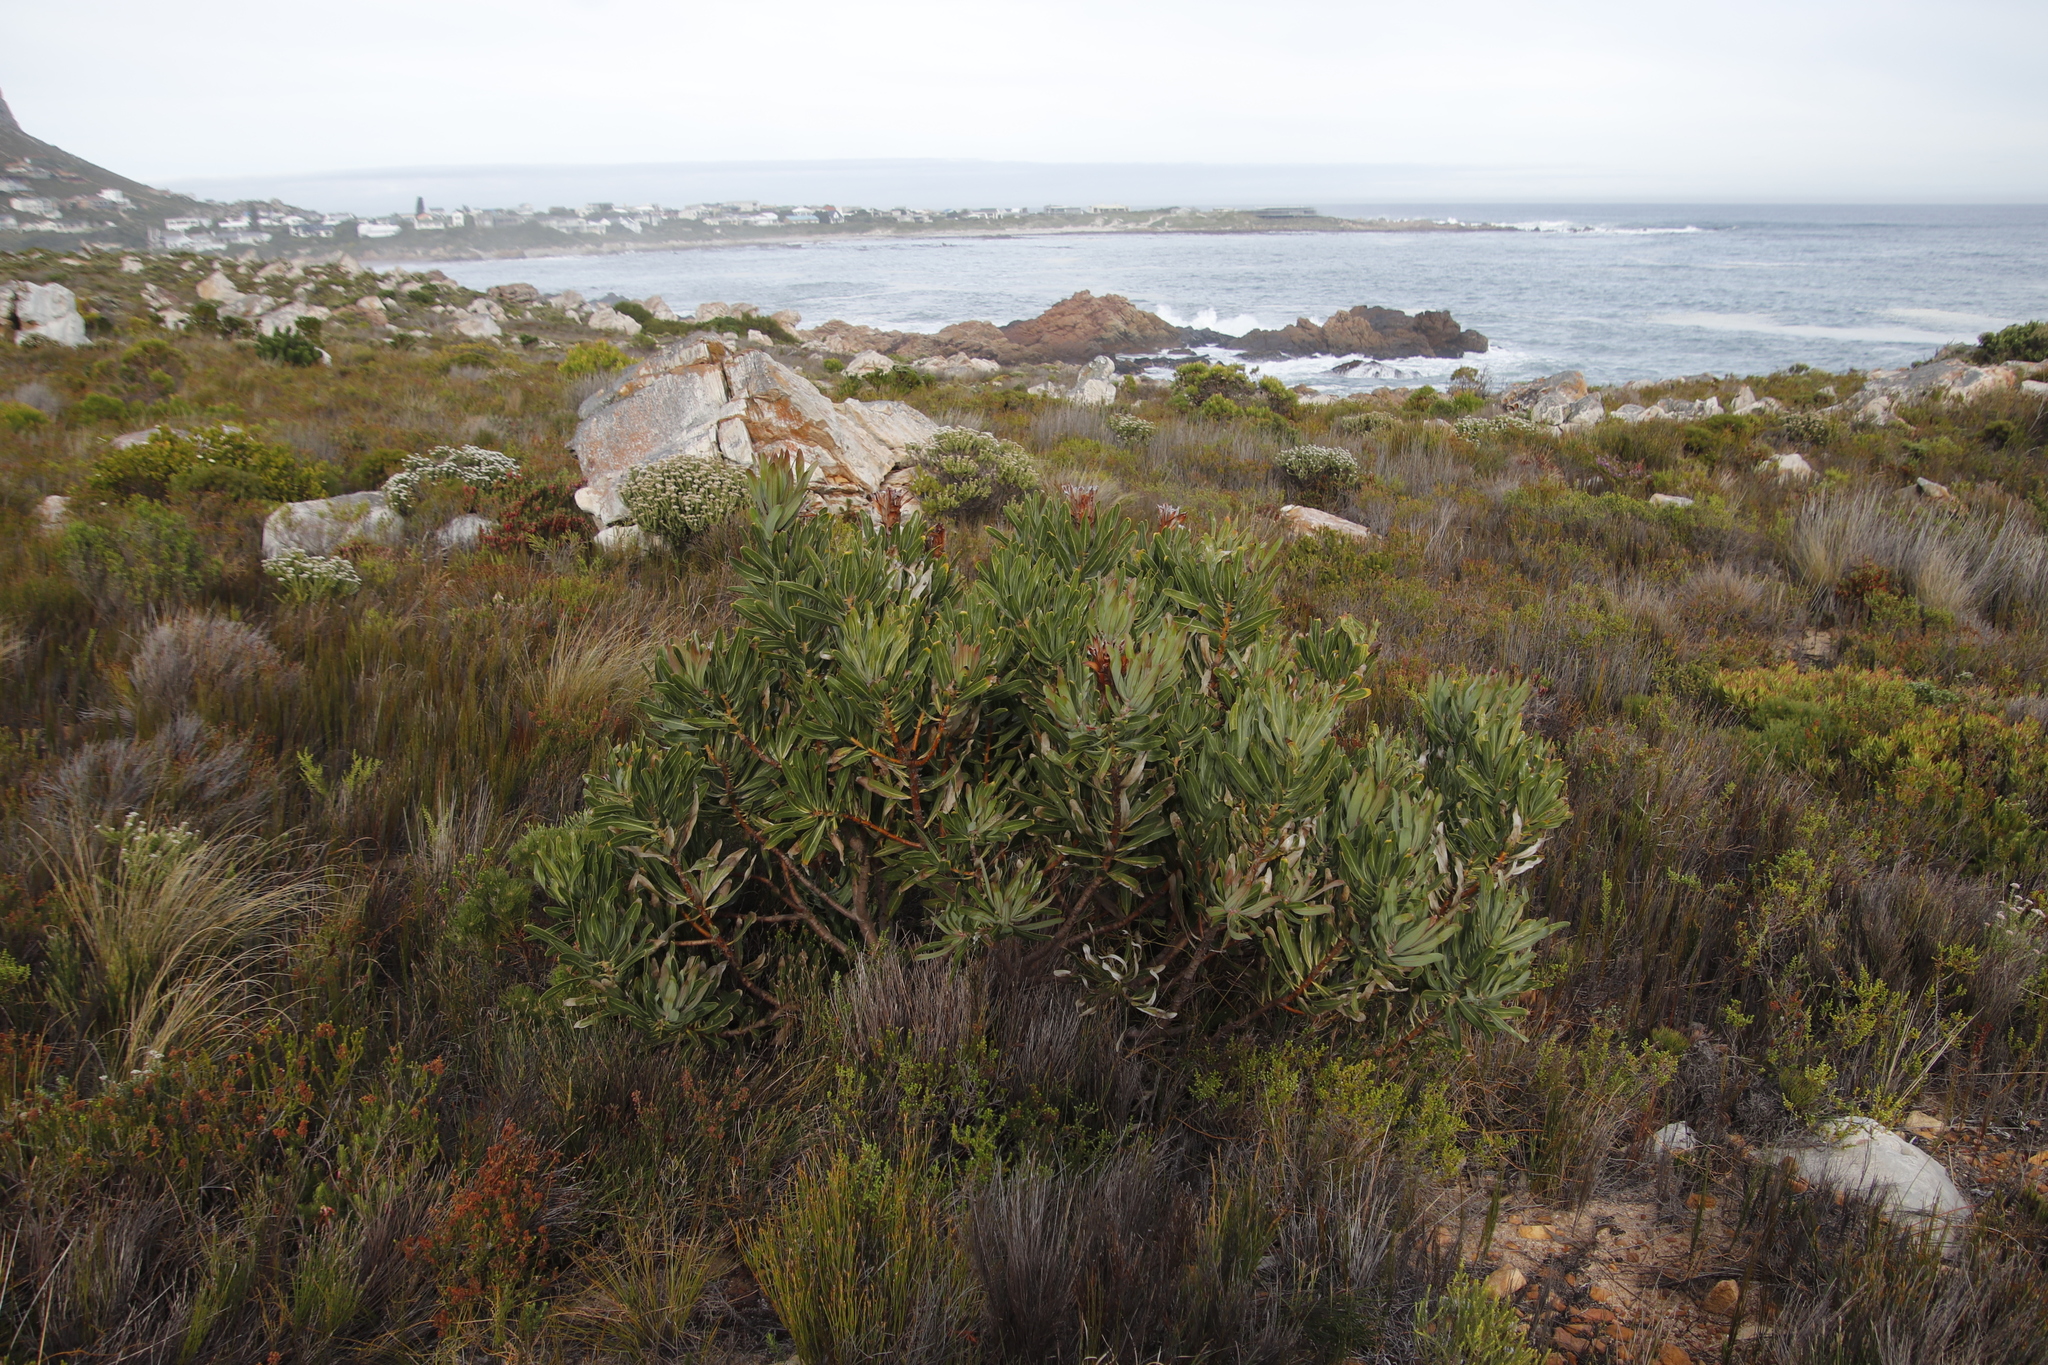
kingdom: Plantae
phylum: Tracheophyta
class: Magnoliopsida
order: Proteales
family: Proteaceae
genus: Protea
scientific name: Protea laurifolia
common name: Grey-leaf sugarbsh
